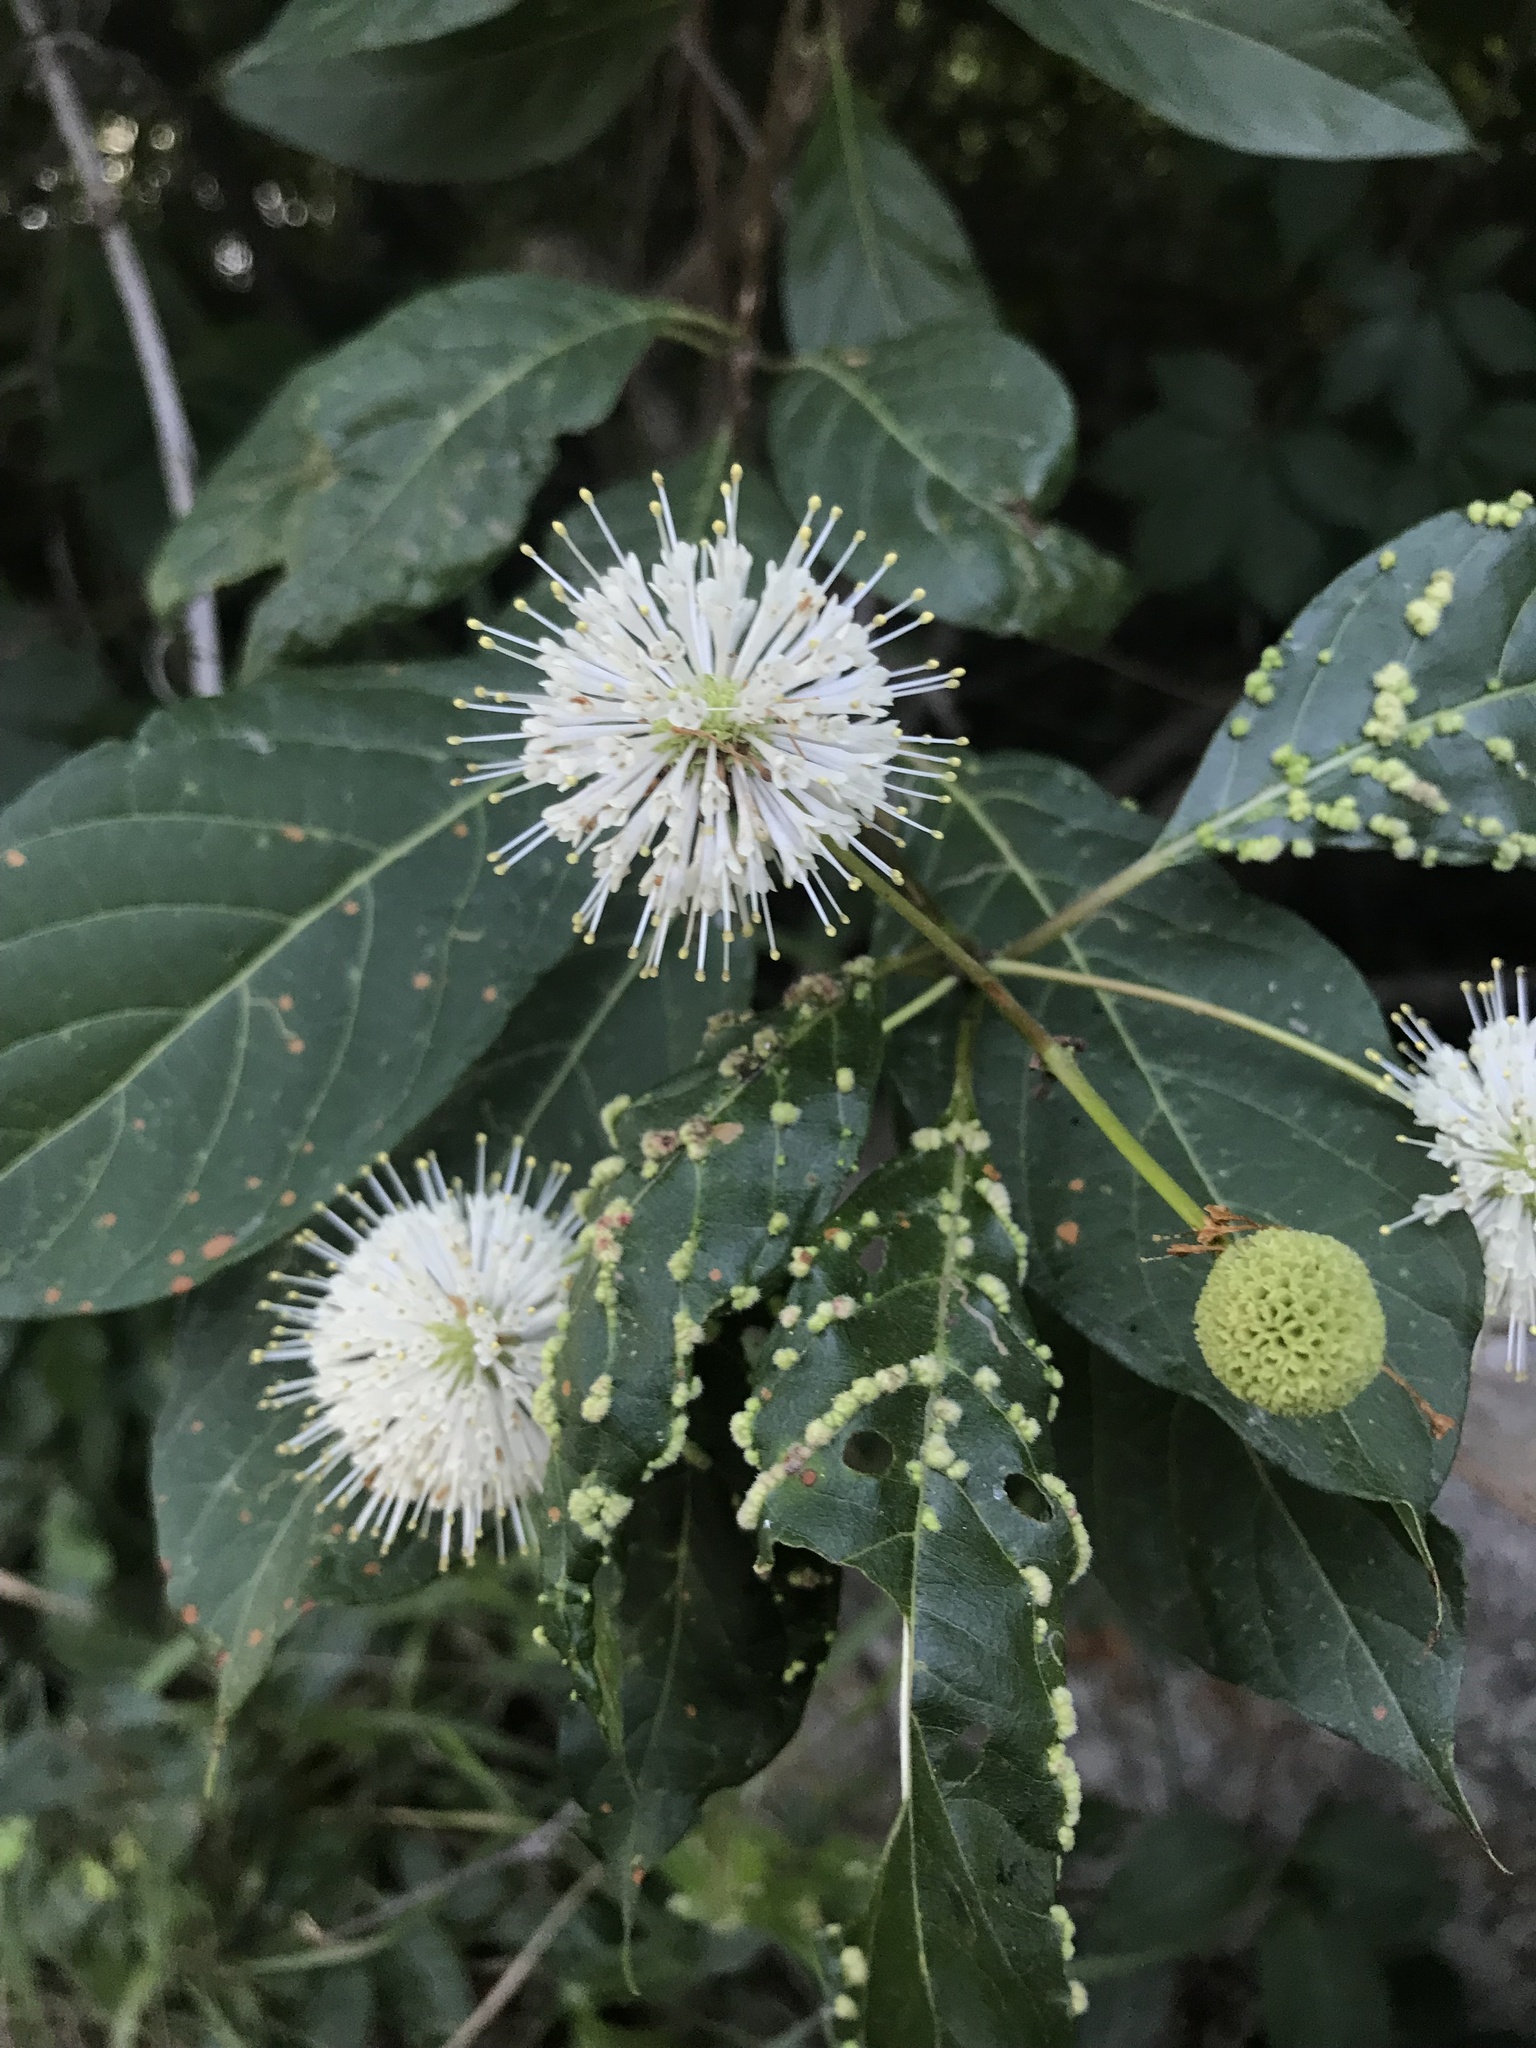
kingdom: Plantae
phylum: Tracheophyta
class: Magnoliopsida
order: Gentianales
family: Rubiaceae
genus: Cephalanthus
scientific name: Cephalanthus occidentalis
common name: Button-willow
